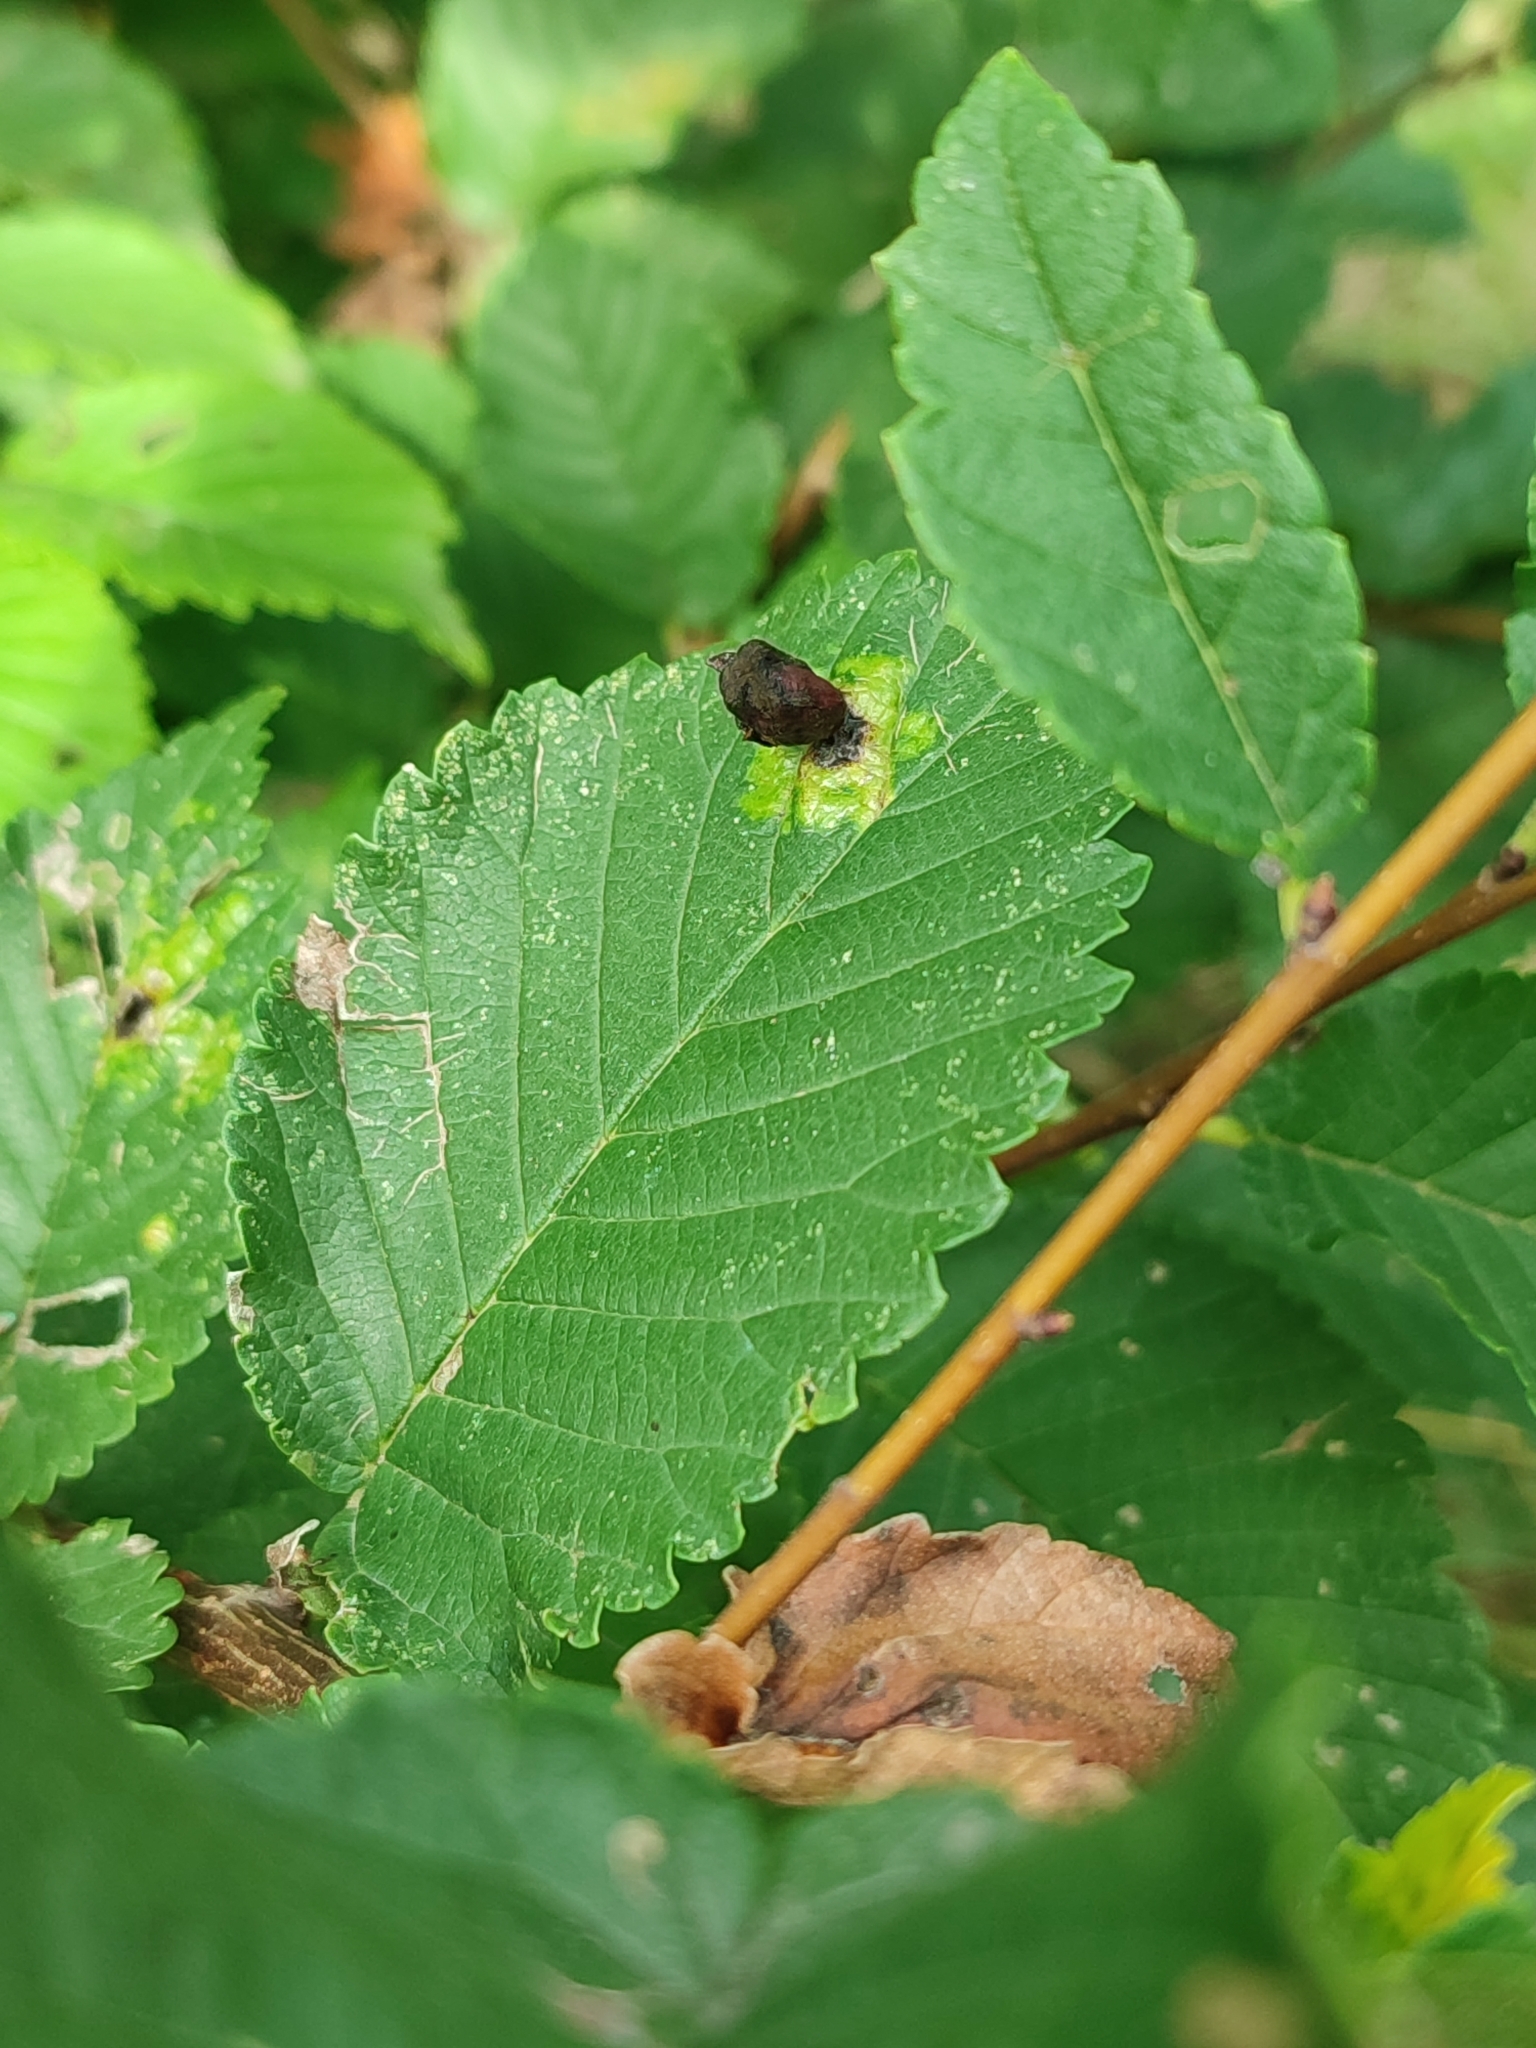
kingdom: Animalia
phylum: Arthropoda
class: Insecta
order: Hemiptera
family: Aphididae
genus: Tetraneura
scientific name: Tetraneura ulmi
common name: Aphid
